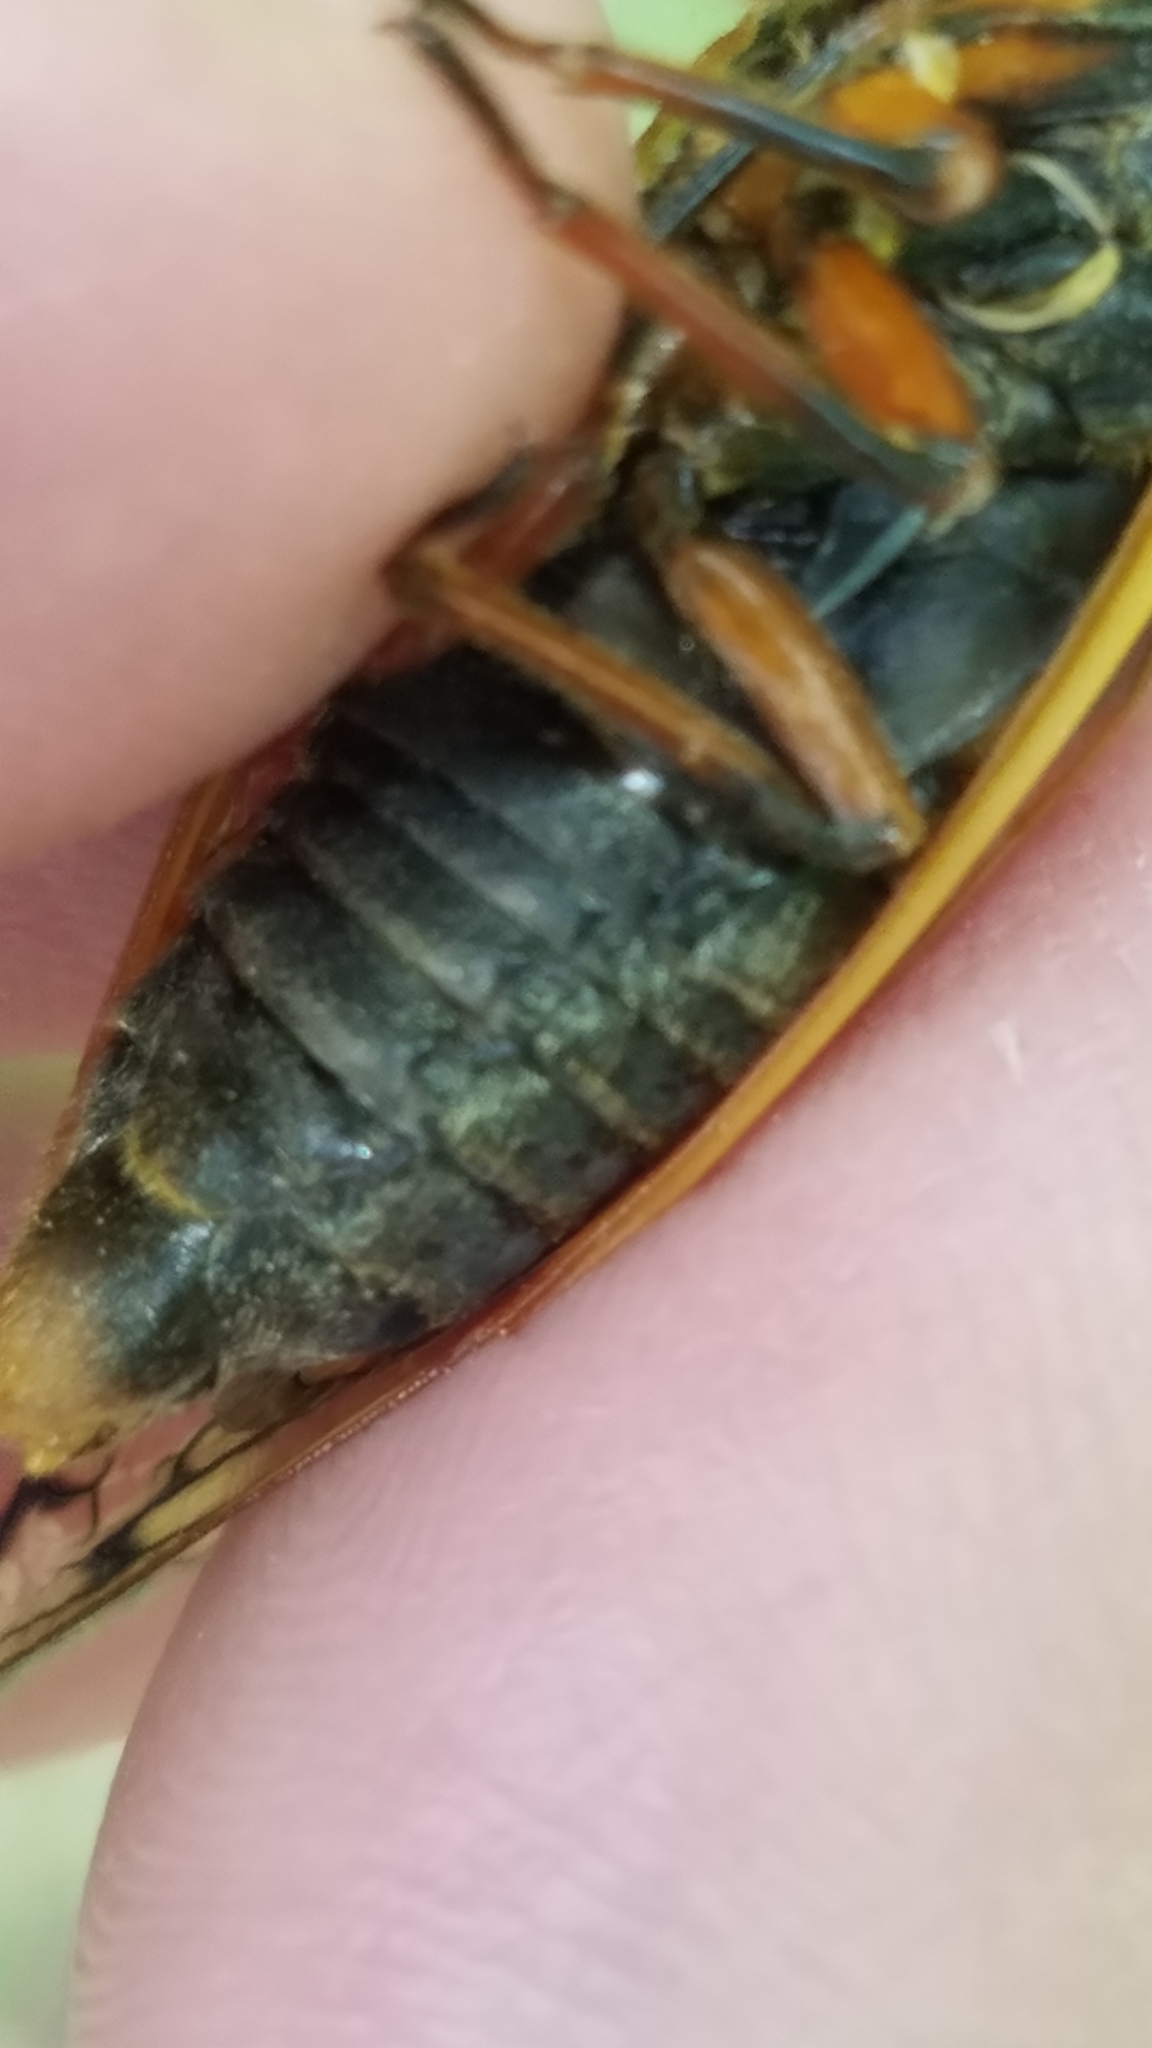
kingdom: Animalia
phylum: Arthropoda
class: Insecta
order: Hemiptera
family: Cicadidae
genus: Magicicada
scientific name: Magicicada cassini
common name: Cassin's 17-year cicada
